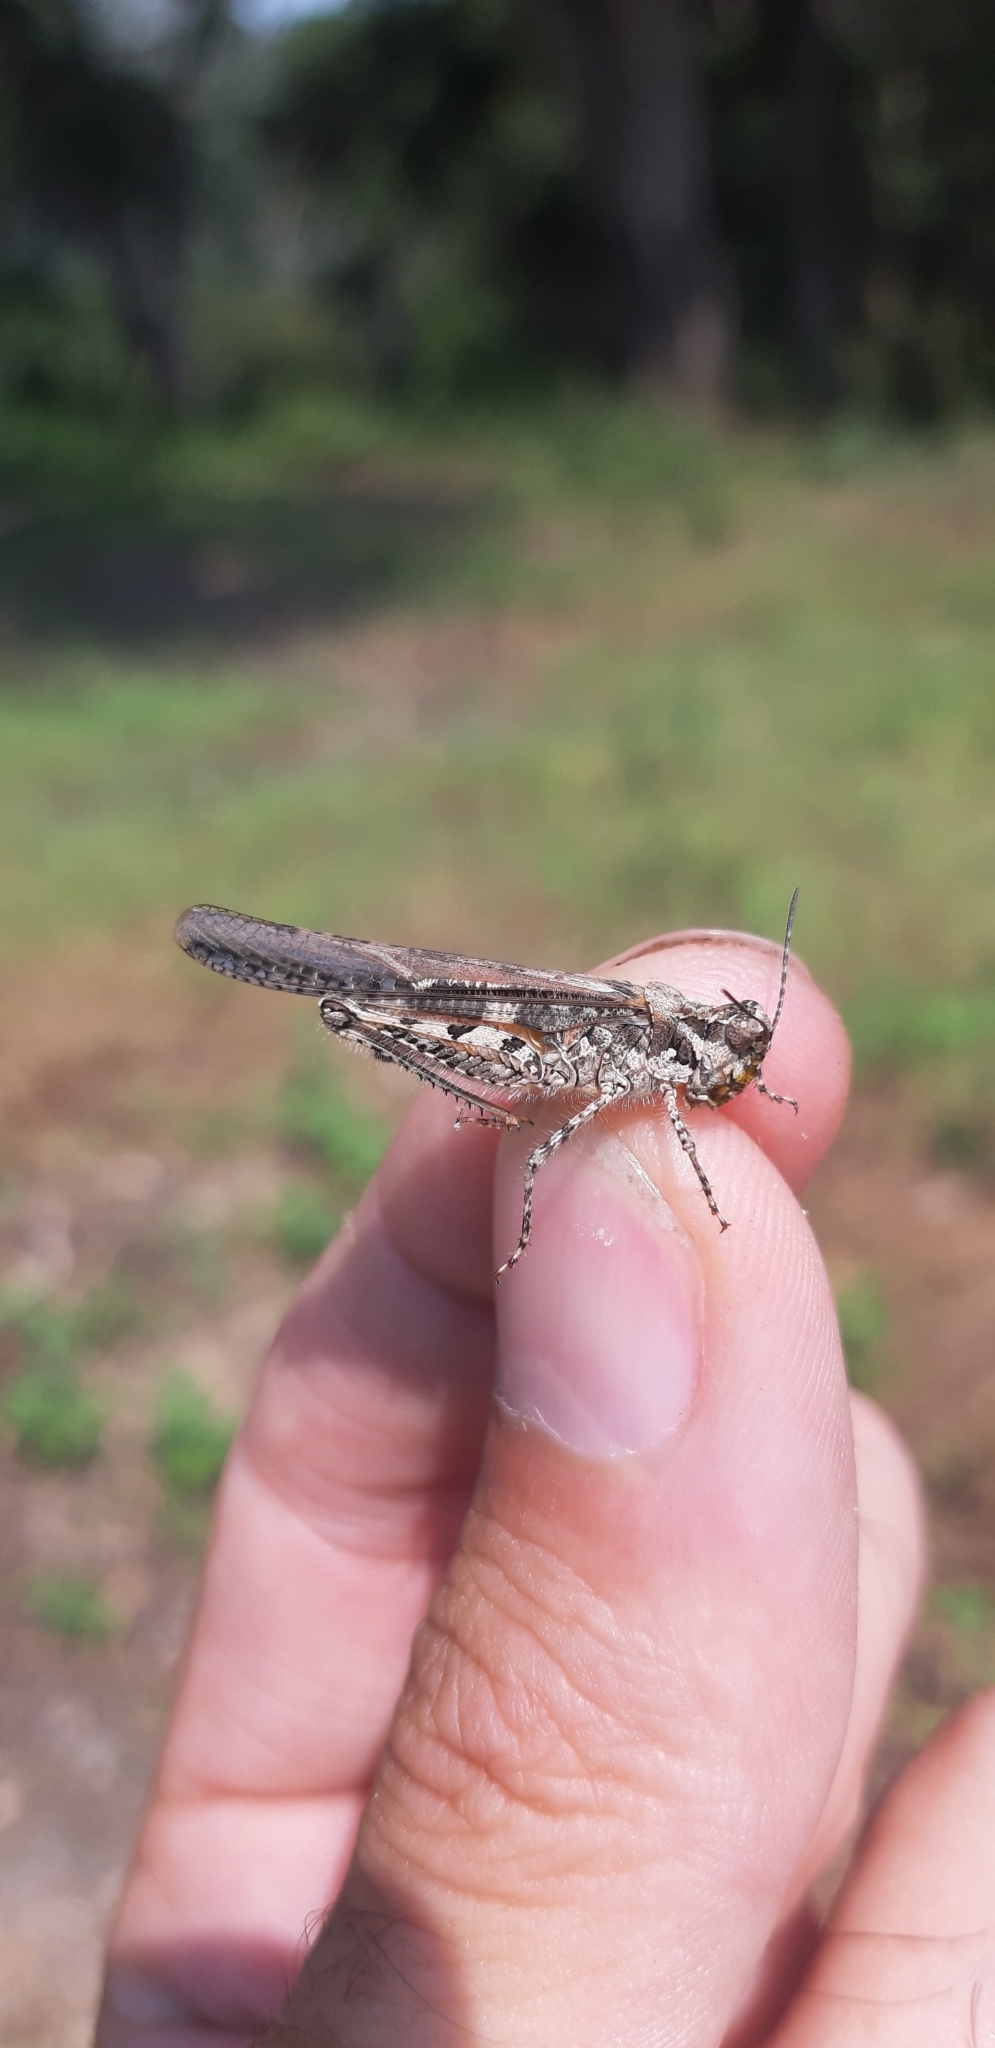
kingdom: Animalia
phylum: Arthropoda
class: Insecta
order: Orthoptera
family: Acrididae
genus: Acrotylus
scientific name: Acrotylus patruelis
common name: Slender burrowing grasshopper
